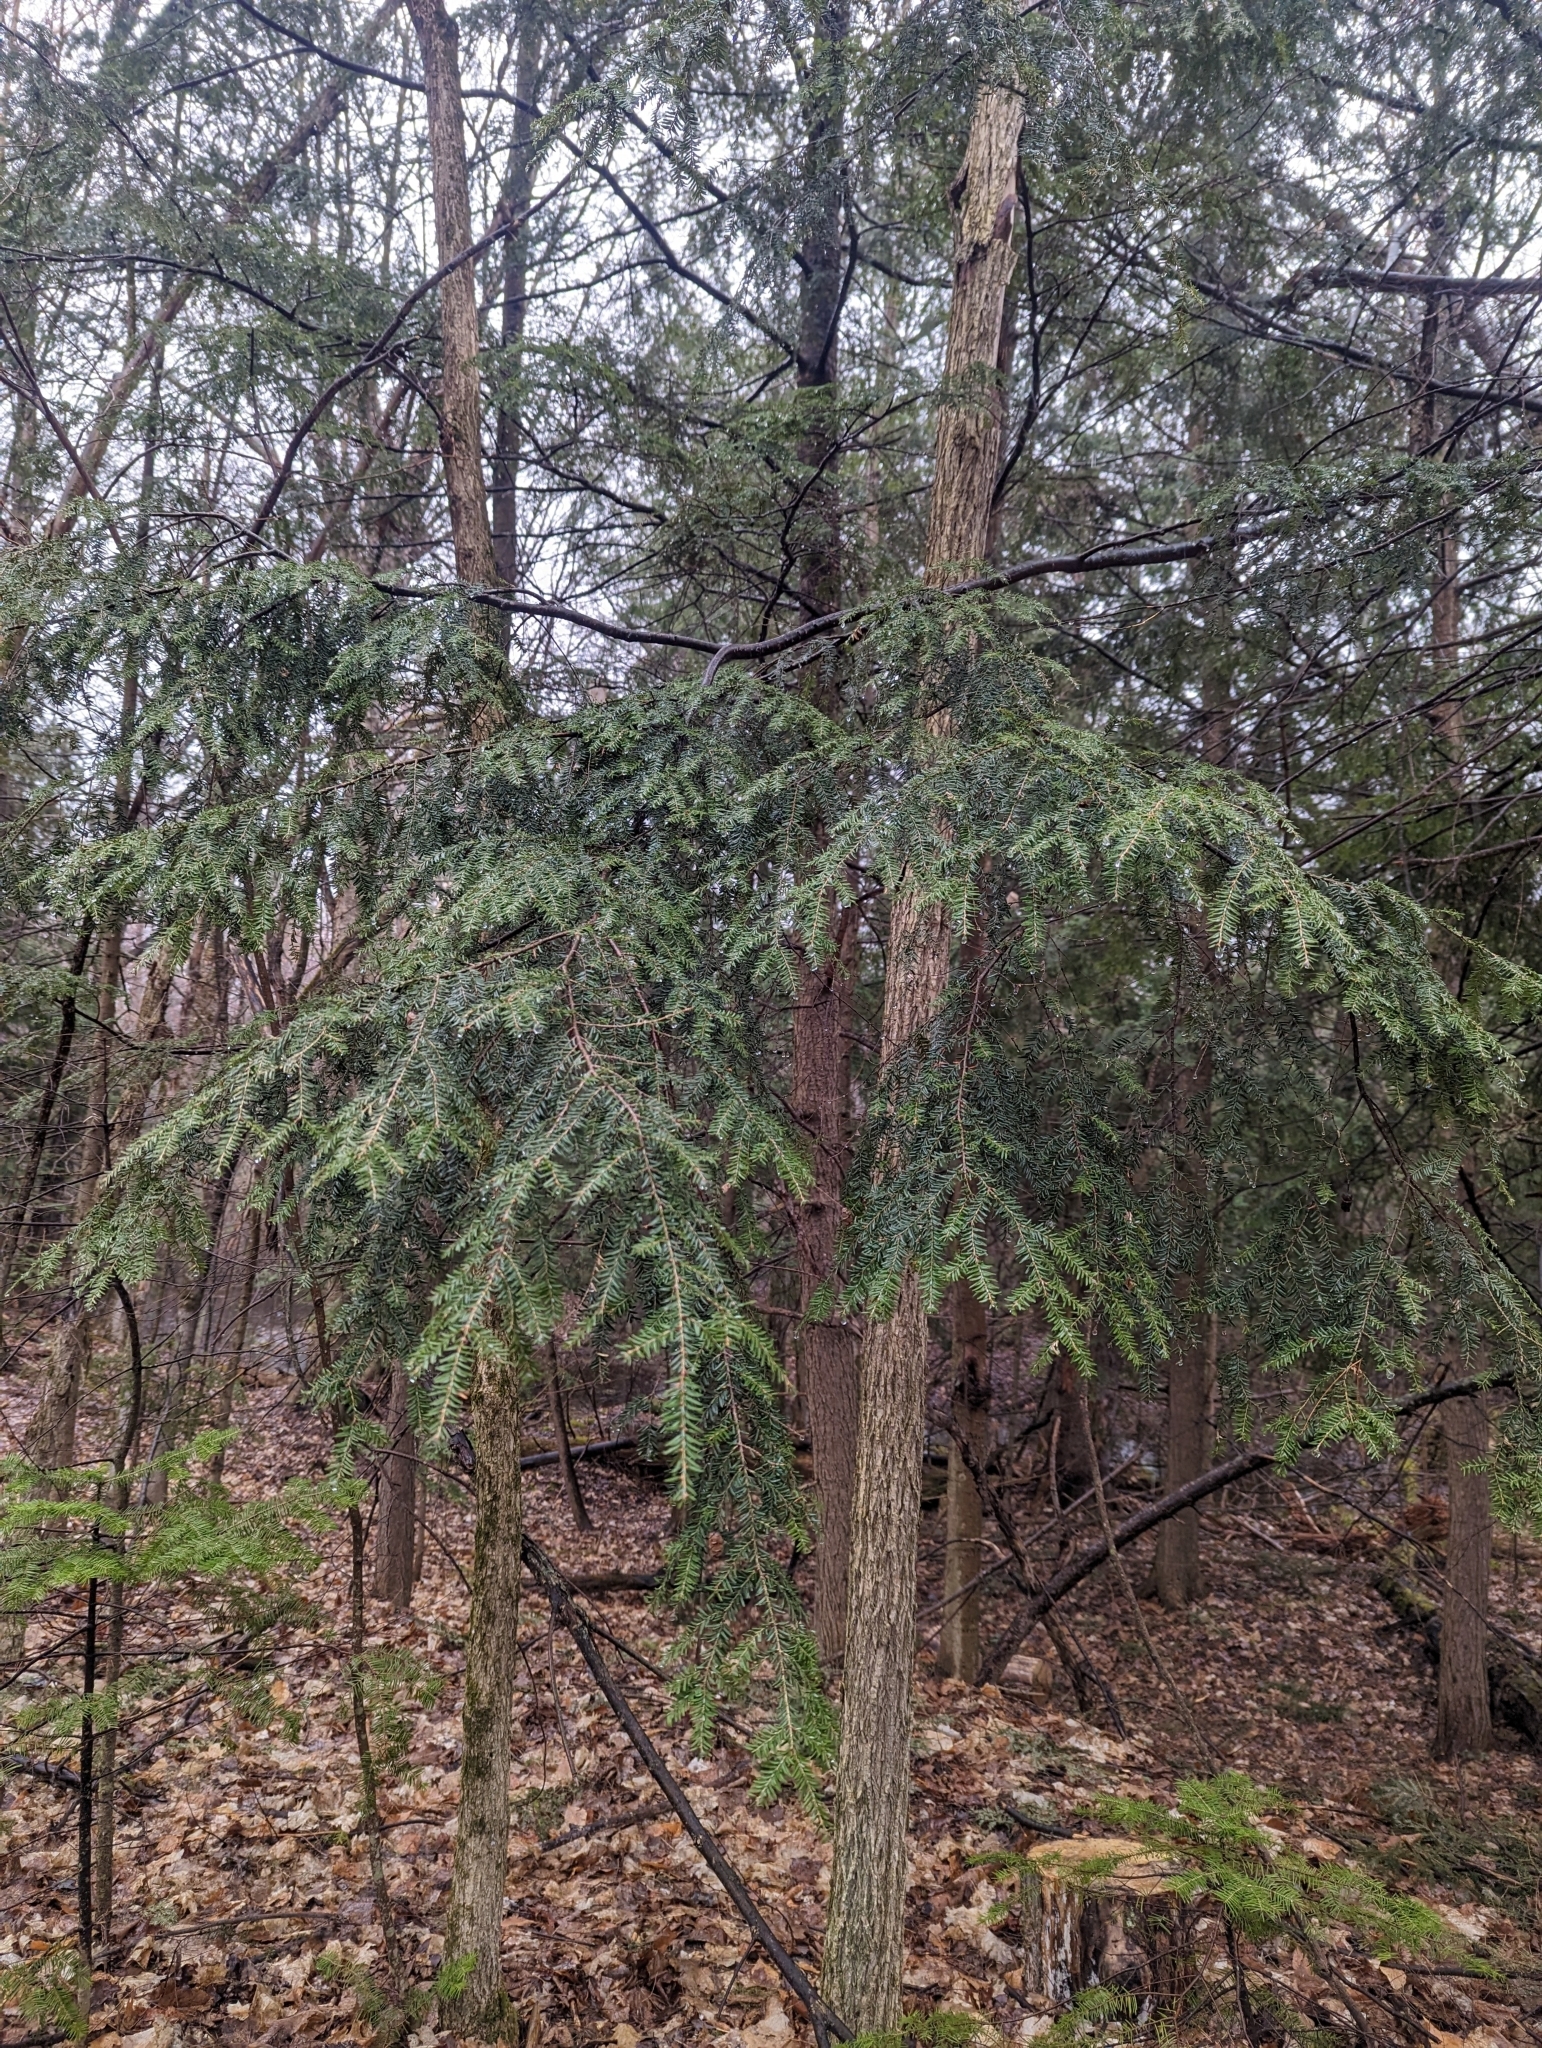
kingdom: Plantae
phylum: Tracheophyta
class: Pinopsida
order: Pinales
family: Pinaceae
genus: Tsuga
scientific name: Tsuga canadensis
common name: Eastern hemlock
